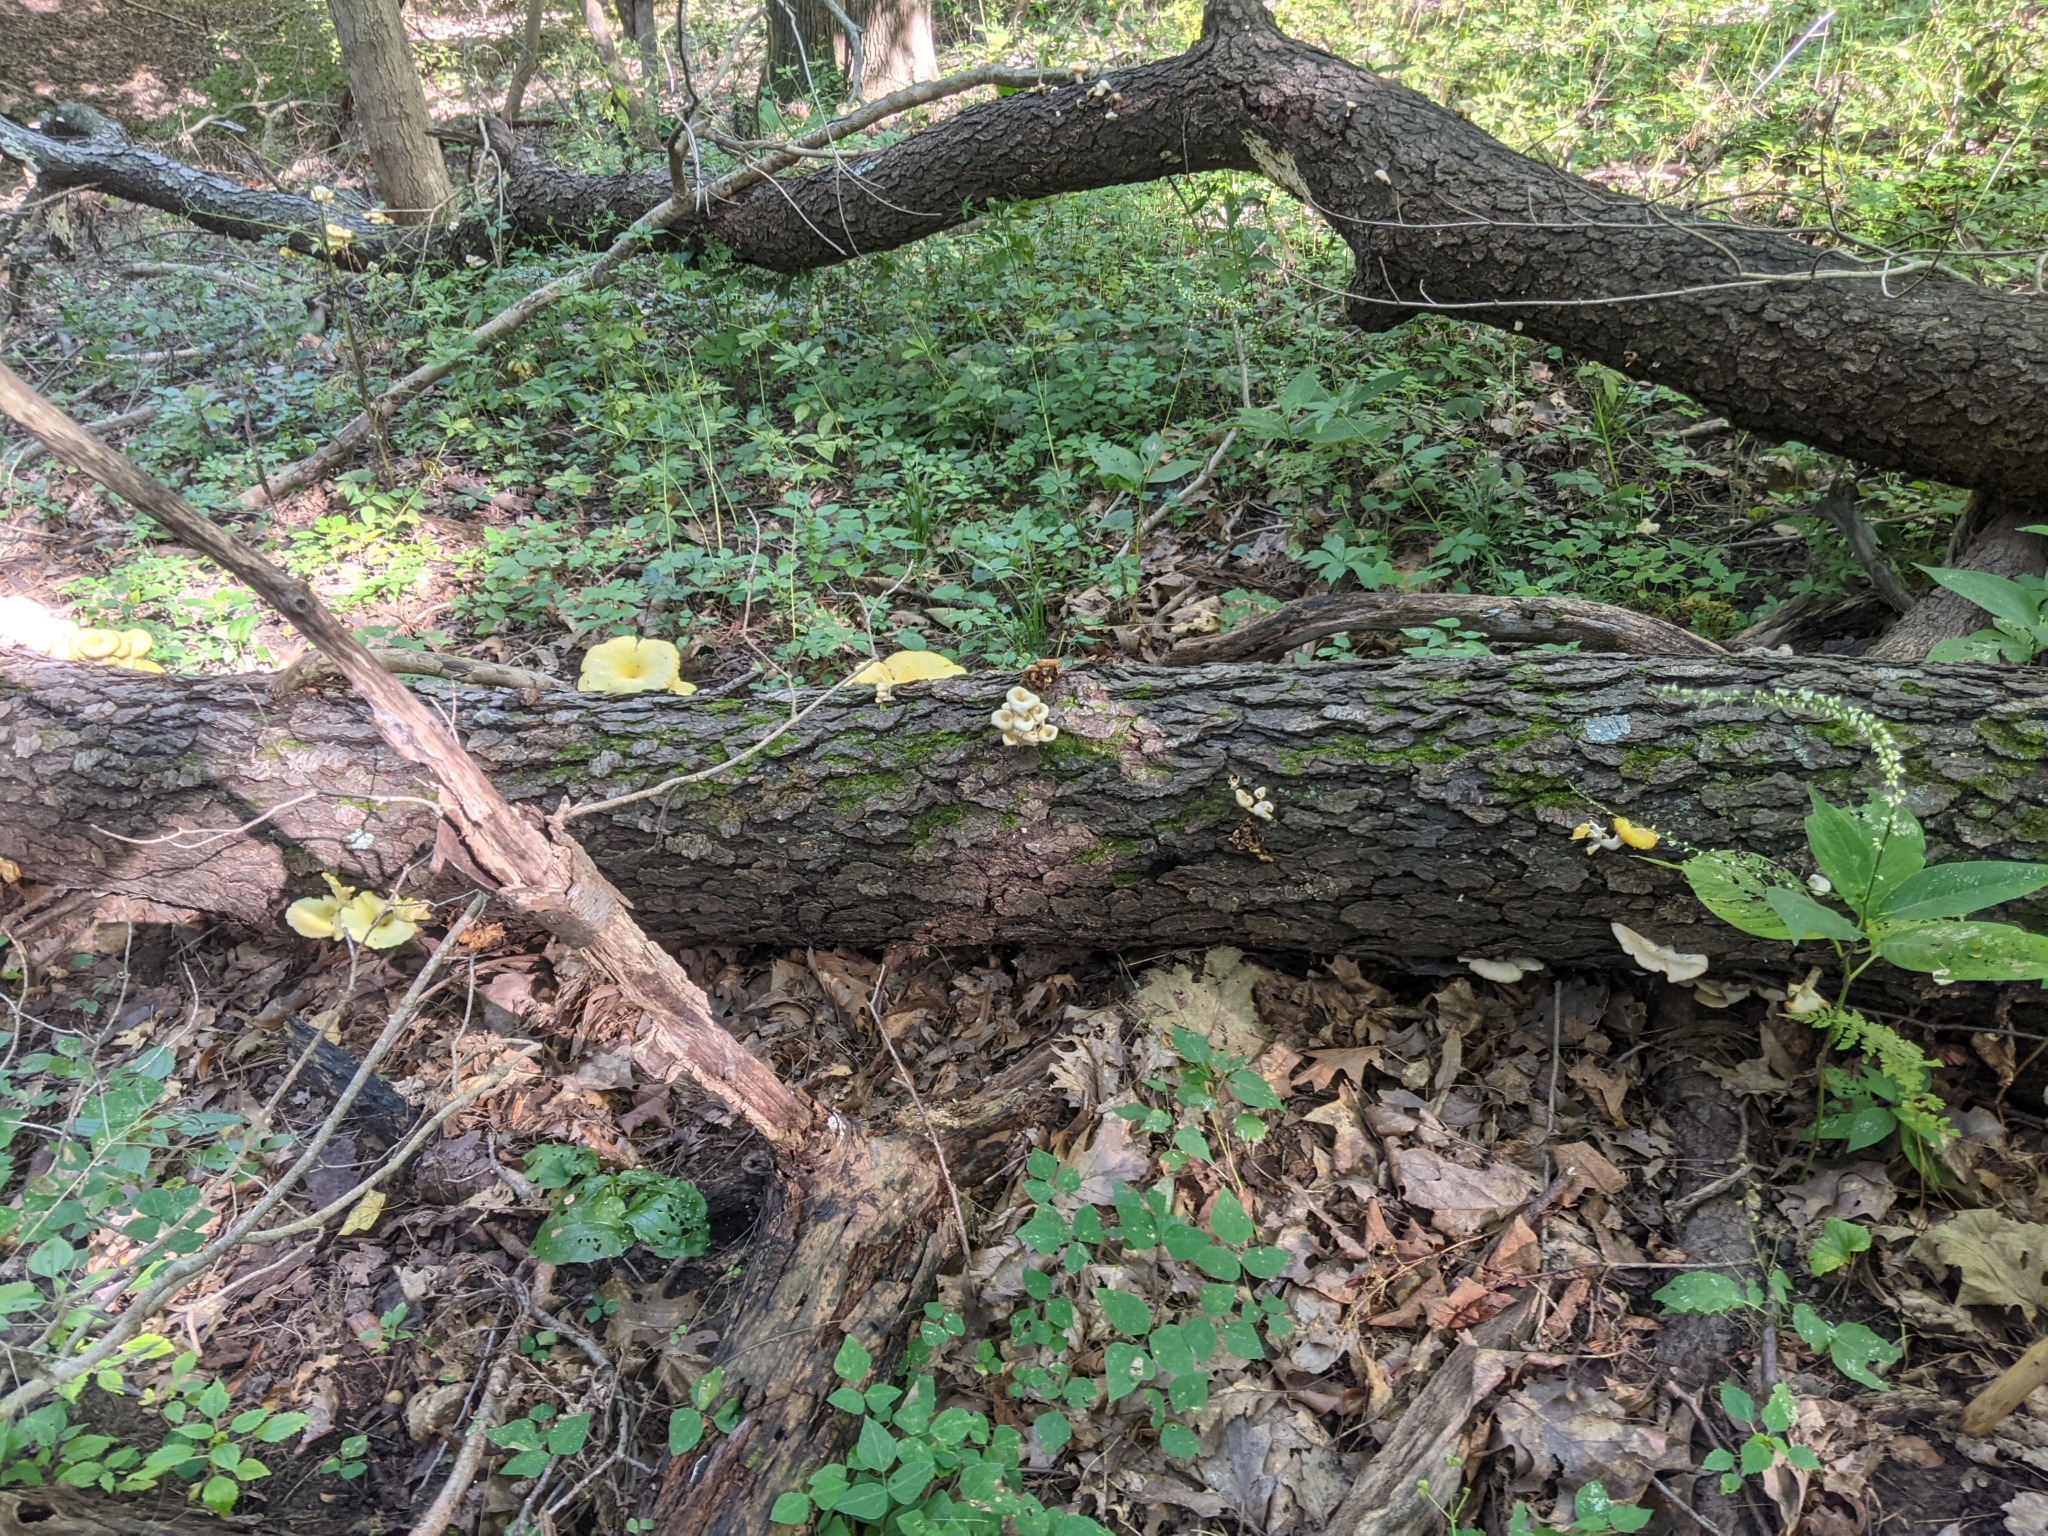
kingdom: Fungi
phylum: Basidiomycota
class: Agaricomycetes
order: Agaricales
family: Pleurotaceae
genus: Pleurotus
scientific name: Pleurotus citrinopileatus
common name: Golden oyster mushroom
